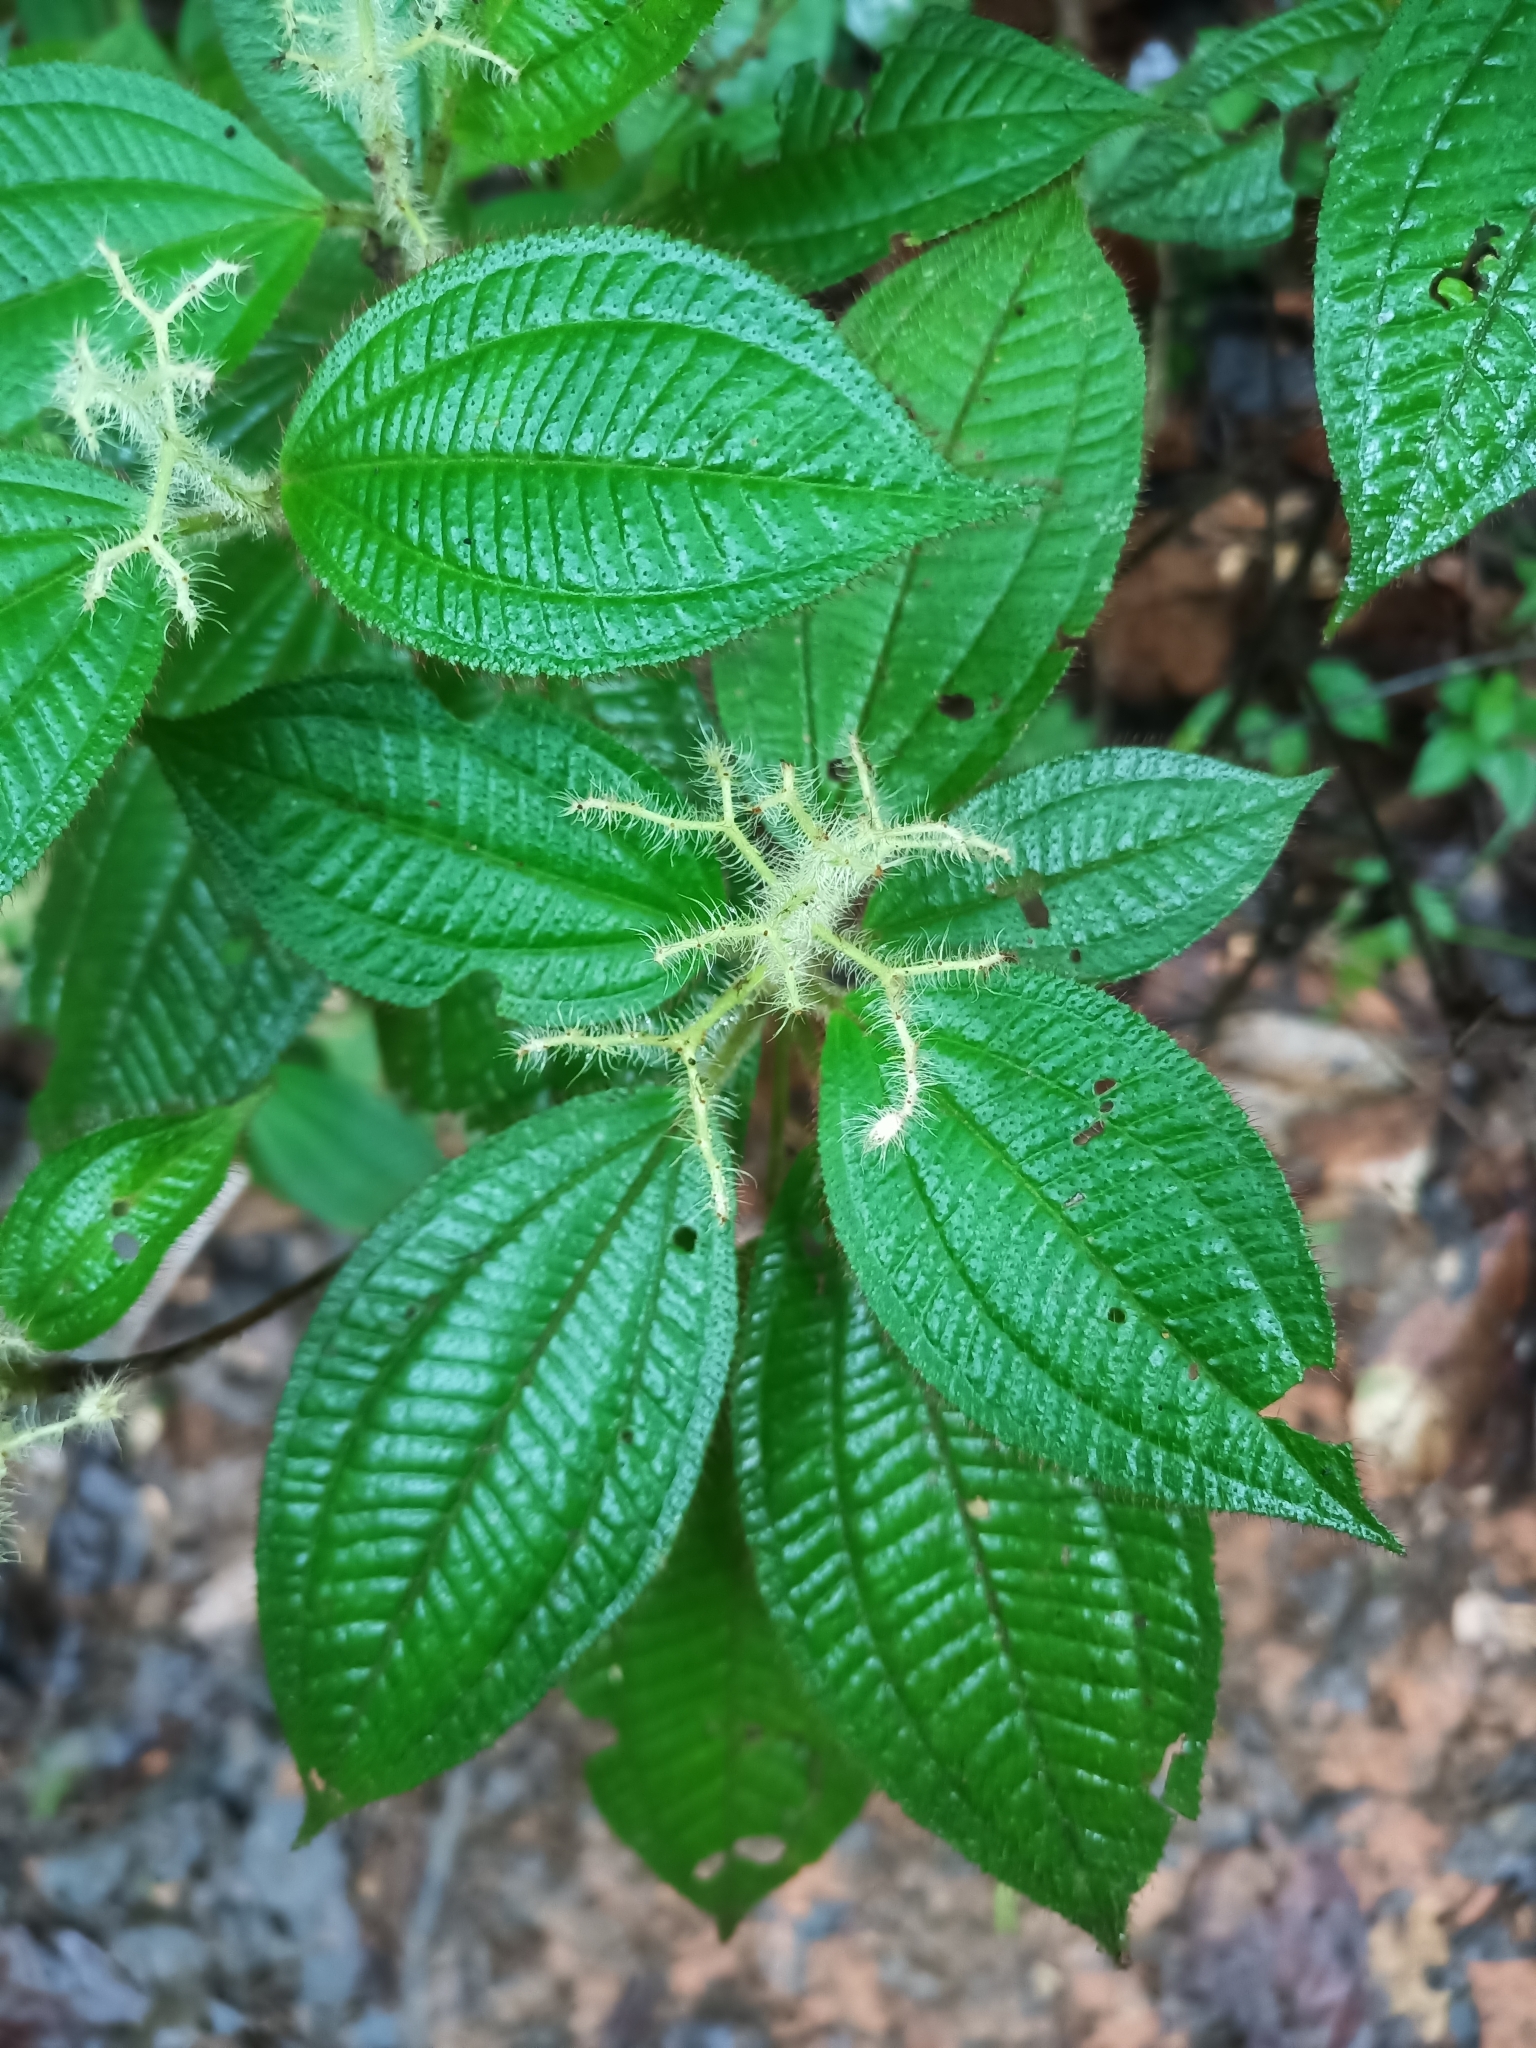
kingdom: Plantae
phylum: Tracheophyta
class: Magnoliopsida
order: Myrtales
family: Melastomataceae
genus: Miconia
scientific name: Miconia agrestis
